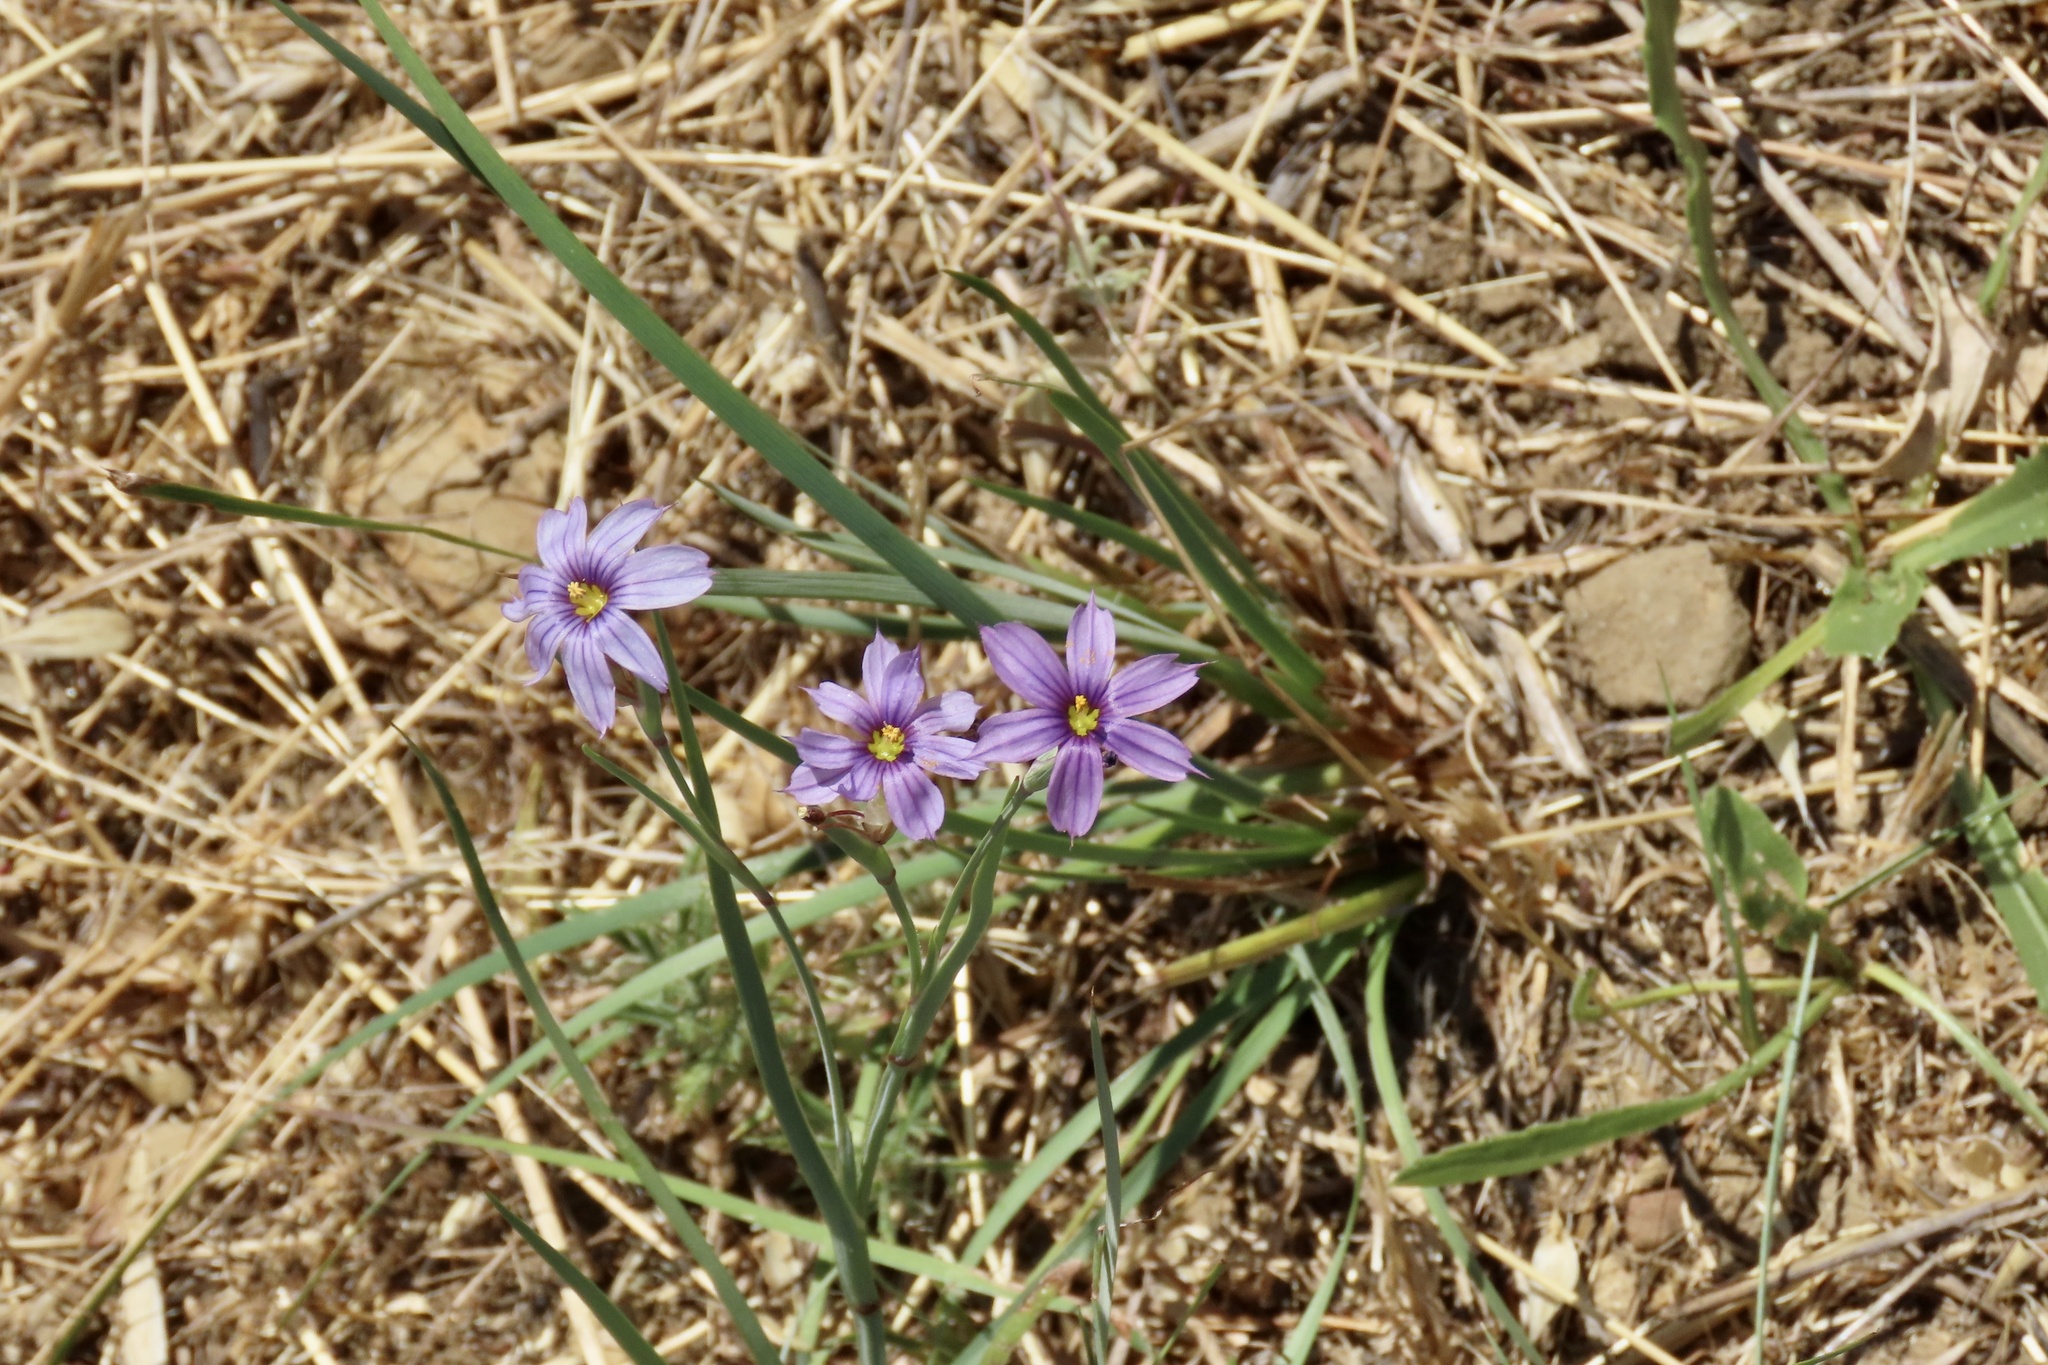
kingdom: Plantae
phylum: Tracheophyta
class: Liliopsida
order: Asparagales
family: Iridaceae
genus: Sisyrinchium
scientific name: Sisyrinchium bellum
